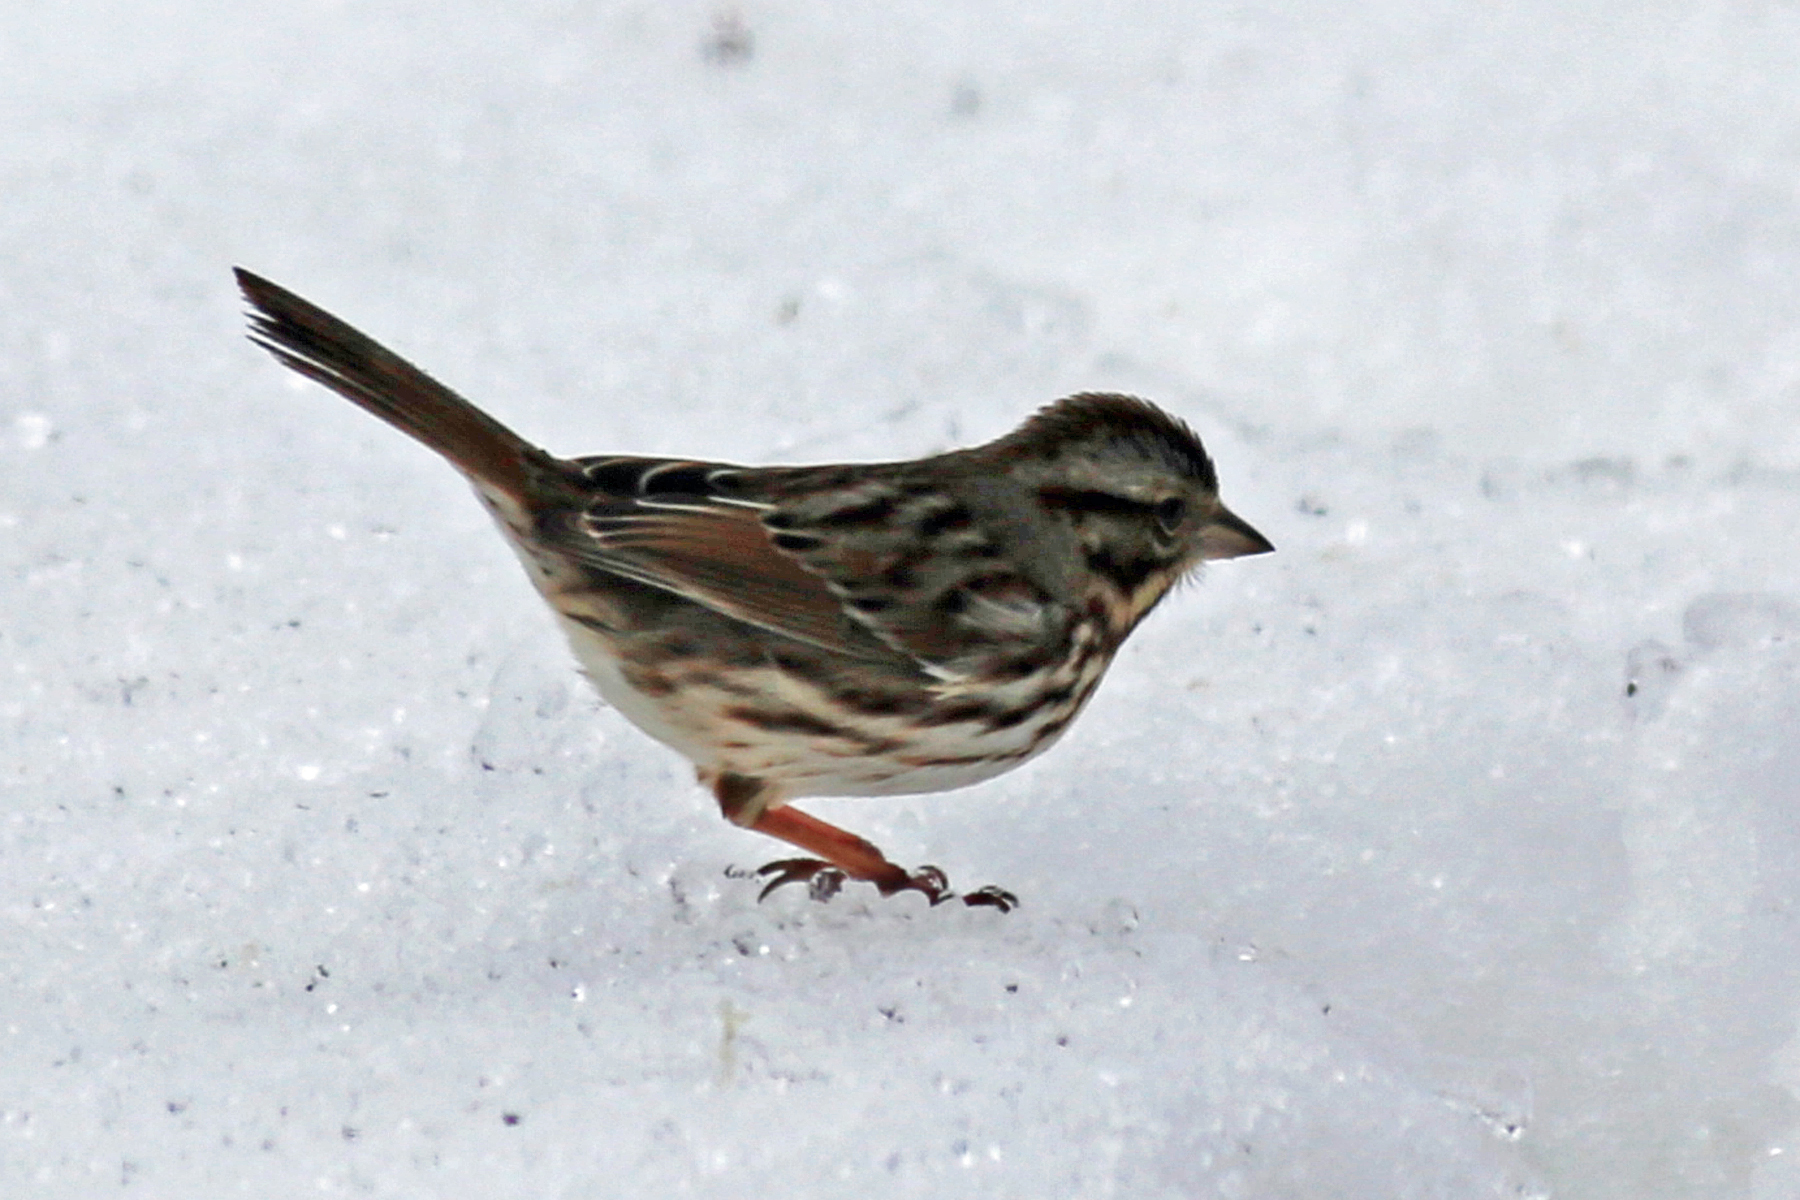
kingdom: Animalia
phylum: Chordata
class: Aves
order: Passeriformes
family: Passerellidae
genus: Melospiza
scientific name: Melospiza melodia
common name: Song sparrow
